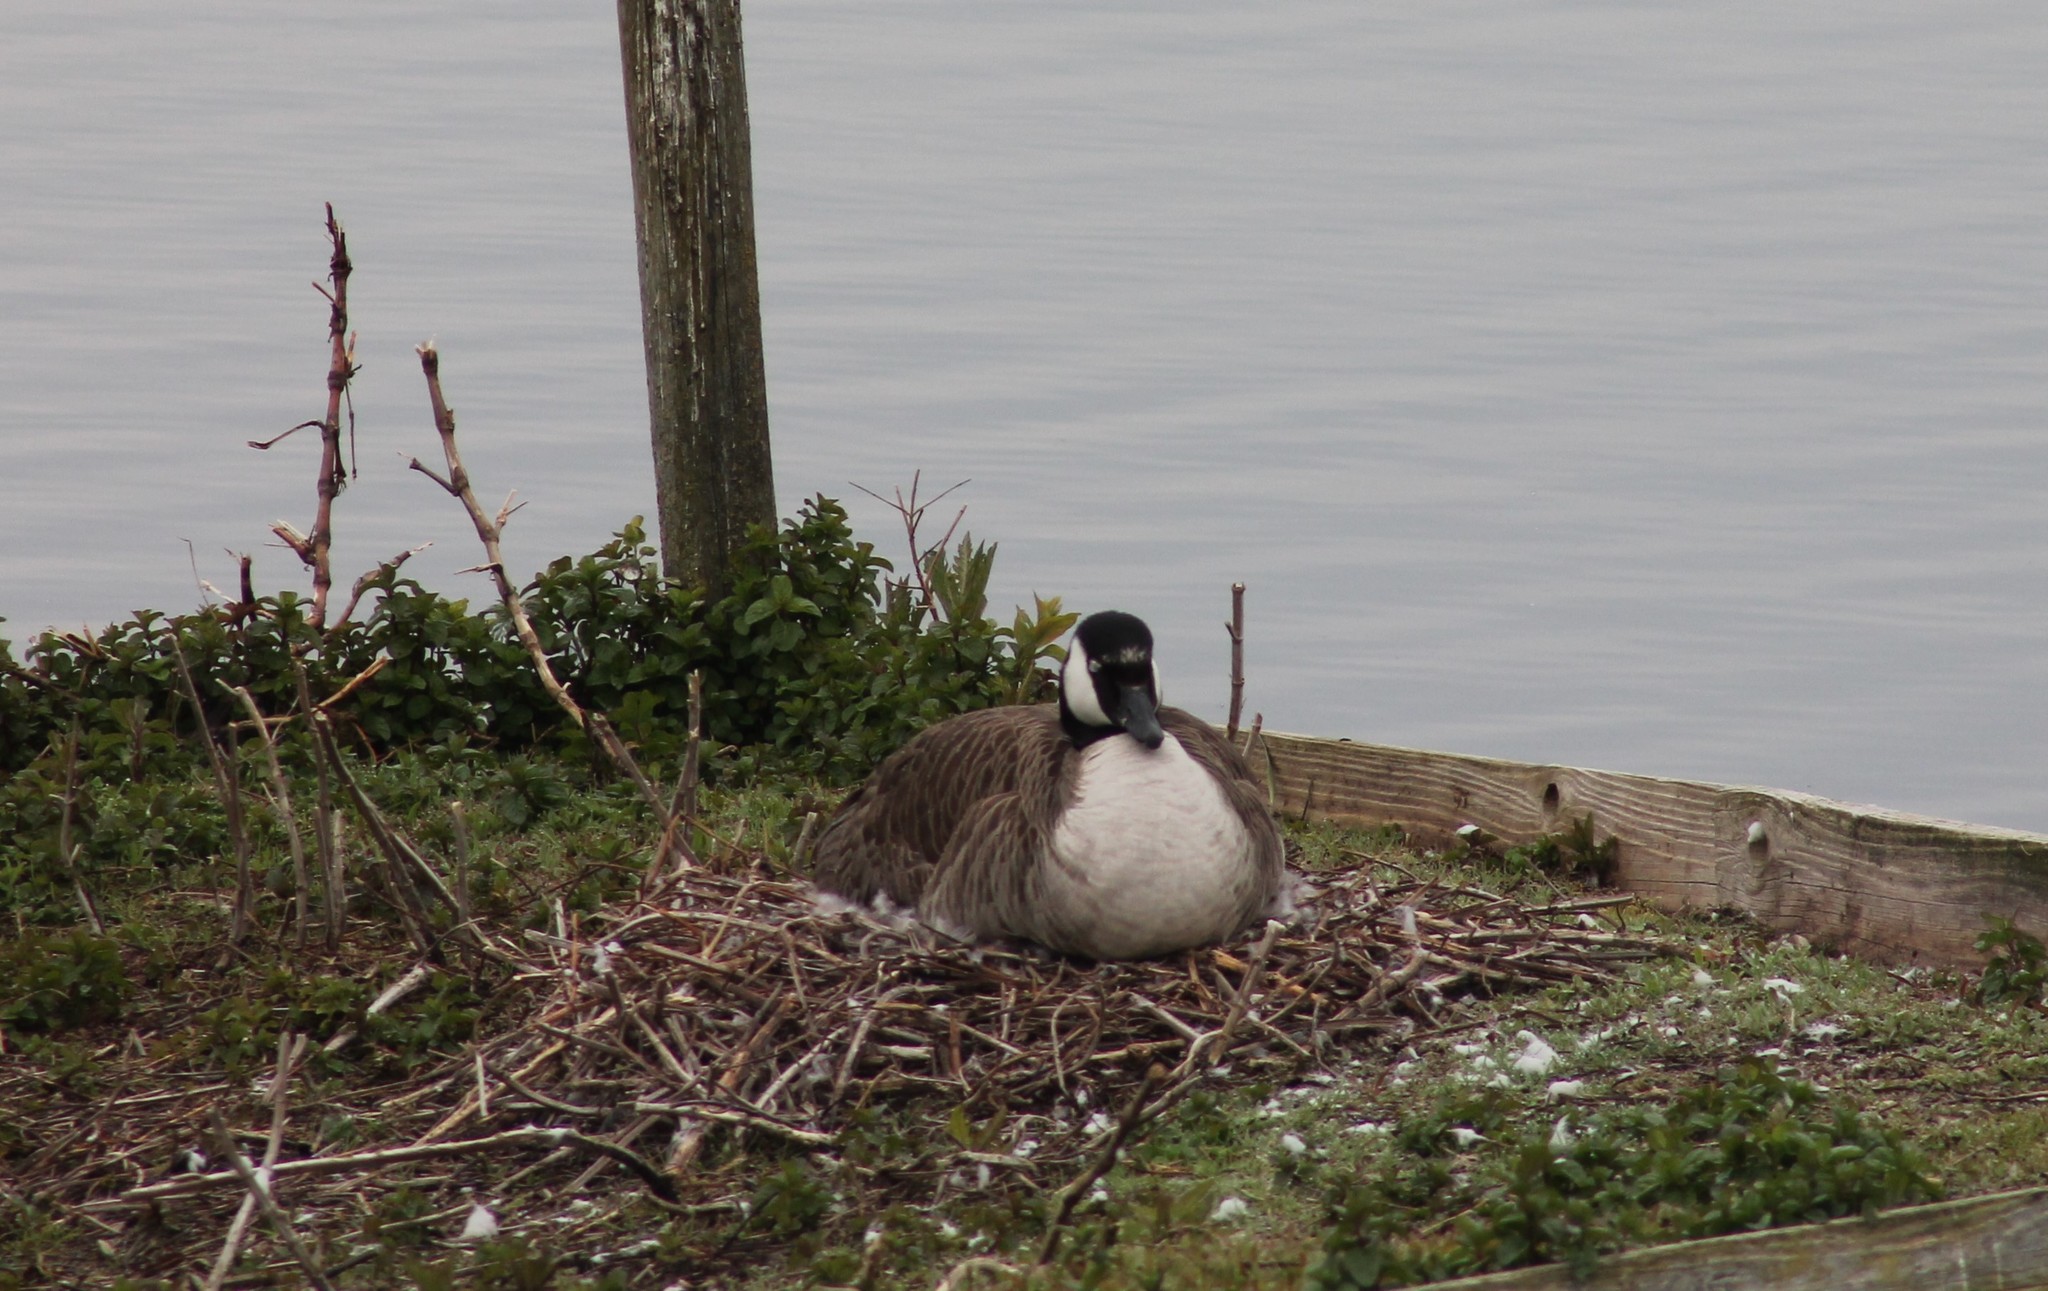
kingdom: Animalia
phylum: Chordata
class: Aves
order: Anseriformes
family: Anatidae
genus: Branta
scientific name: Branta canadensis
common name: Canada goose
